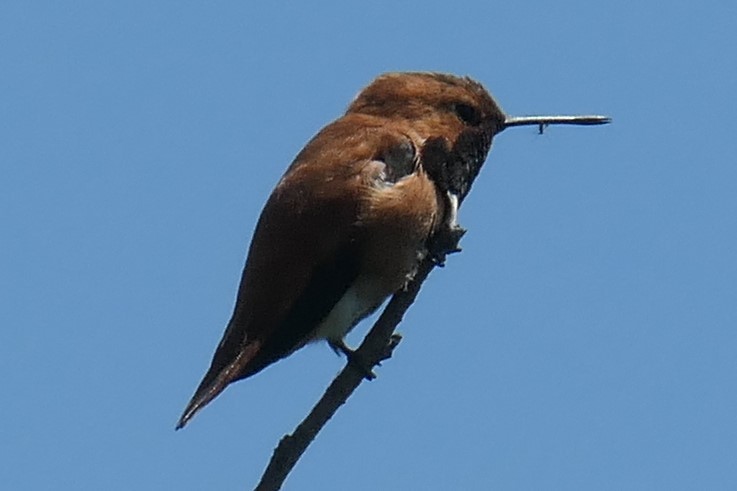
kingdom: Animalia
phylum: Chordata
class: Aves
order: Apodiformes
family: Trochilidae
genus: Selasphorus
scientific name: Selasphorus rufus
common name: Rufous hummingbird
